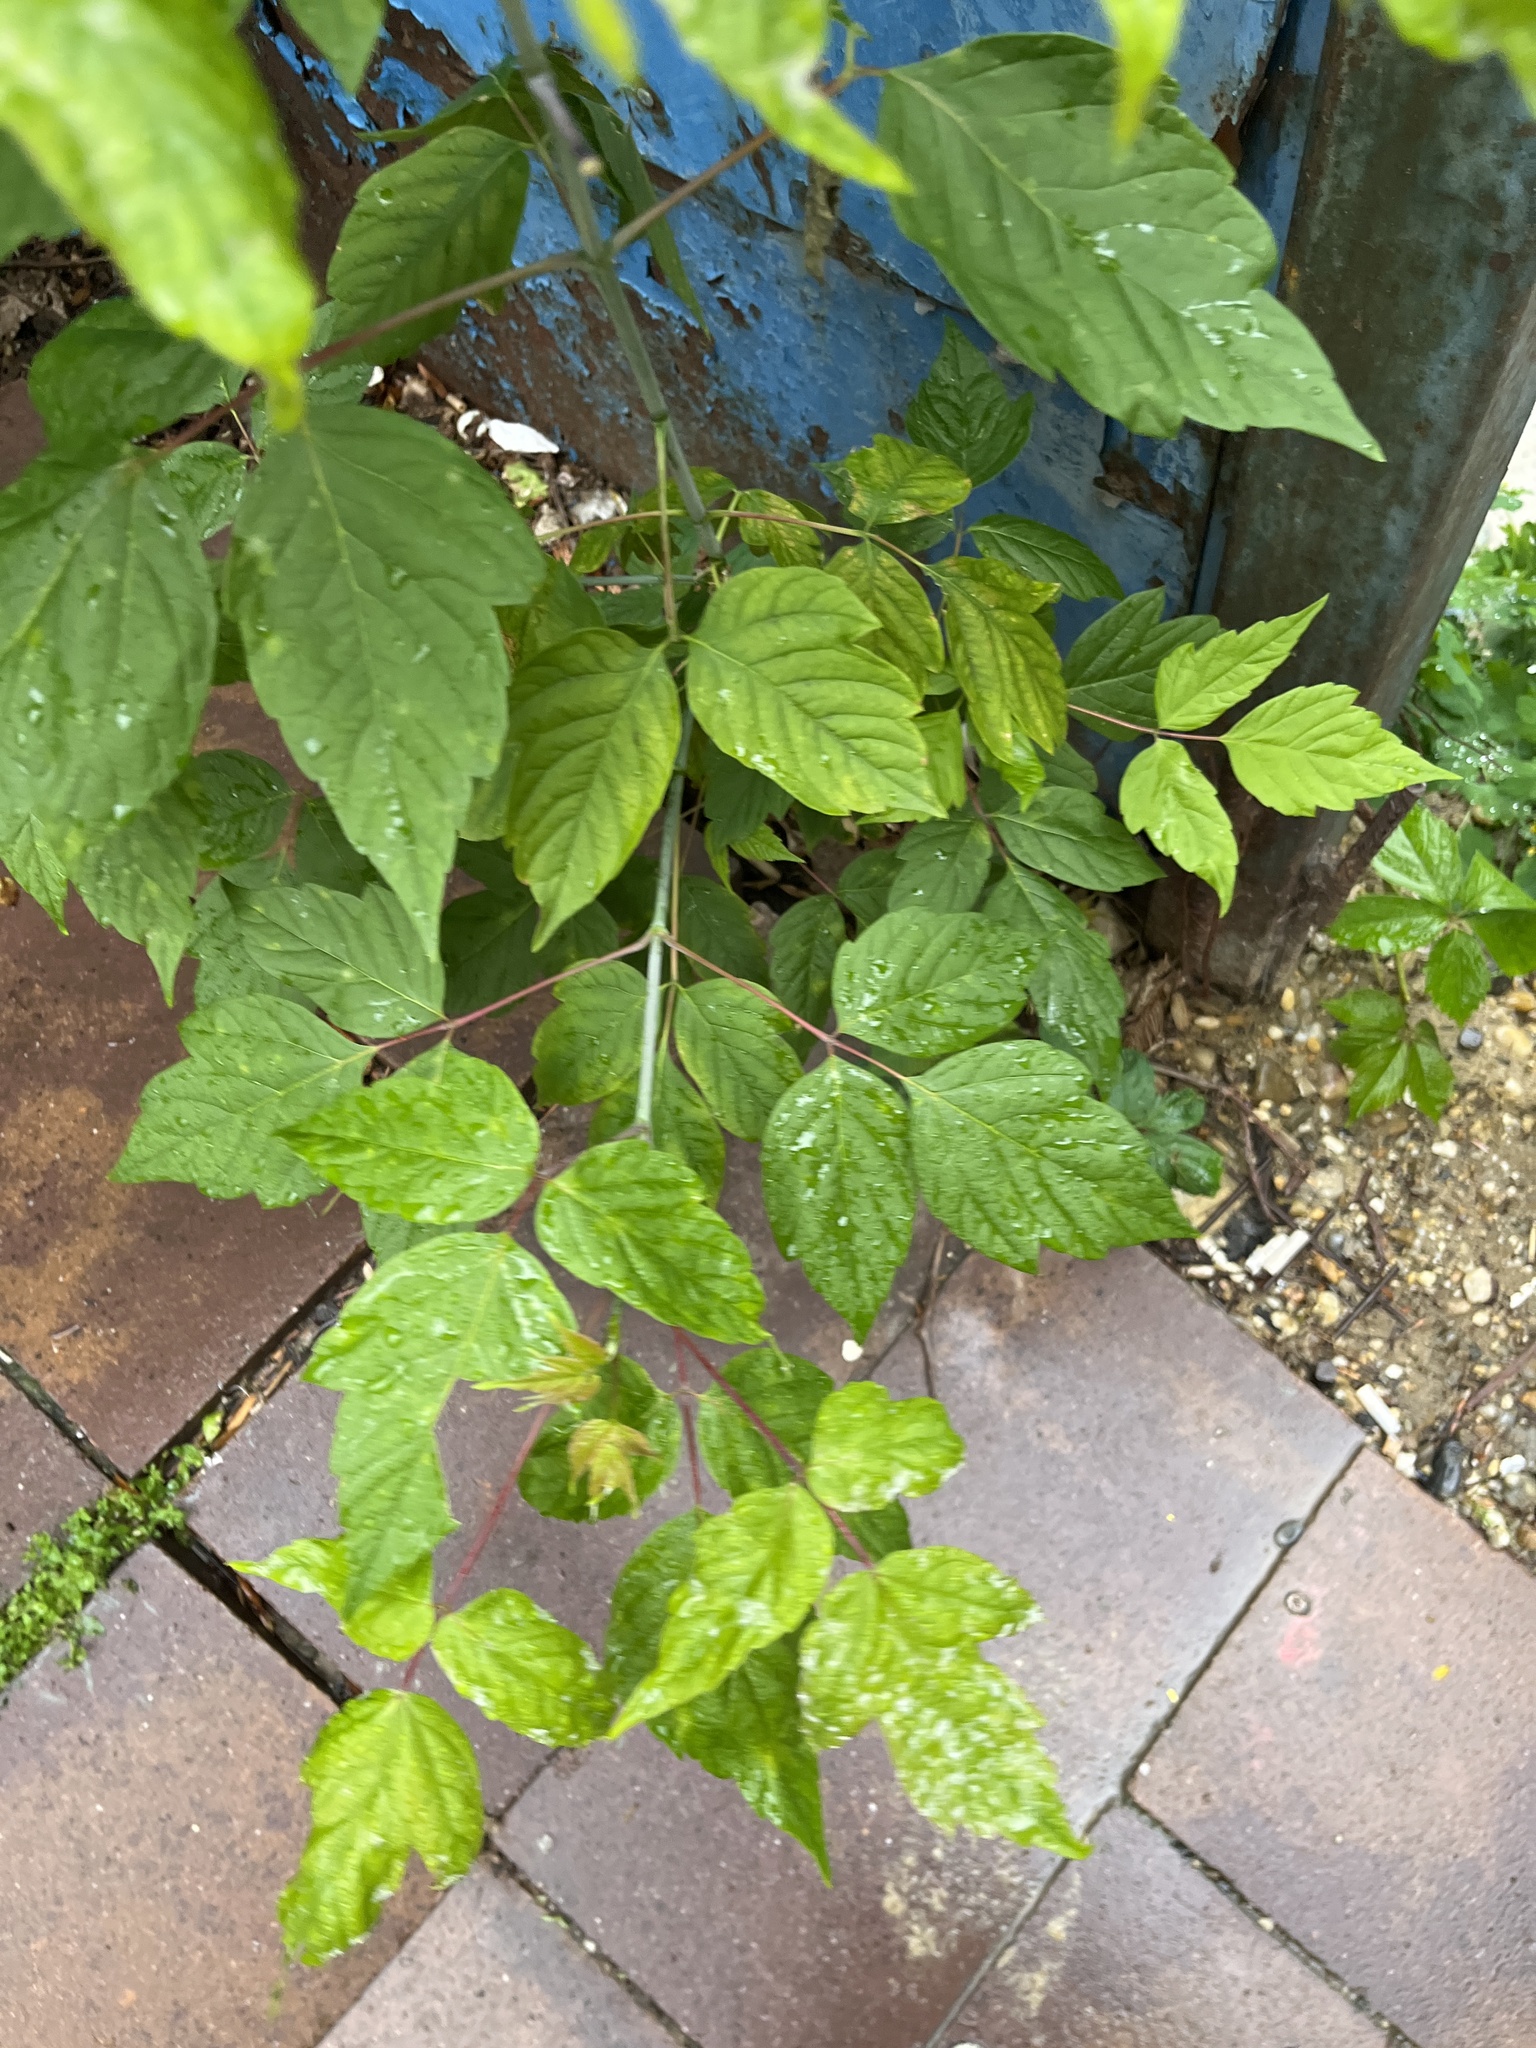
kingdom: Plantae
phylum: Tracheophyta
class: Magnoliopsida
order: Sapindales
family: Sapindaceae
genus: Acer
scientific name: Acer negundo
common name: Ashleaf maple
